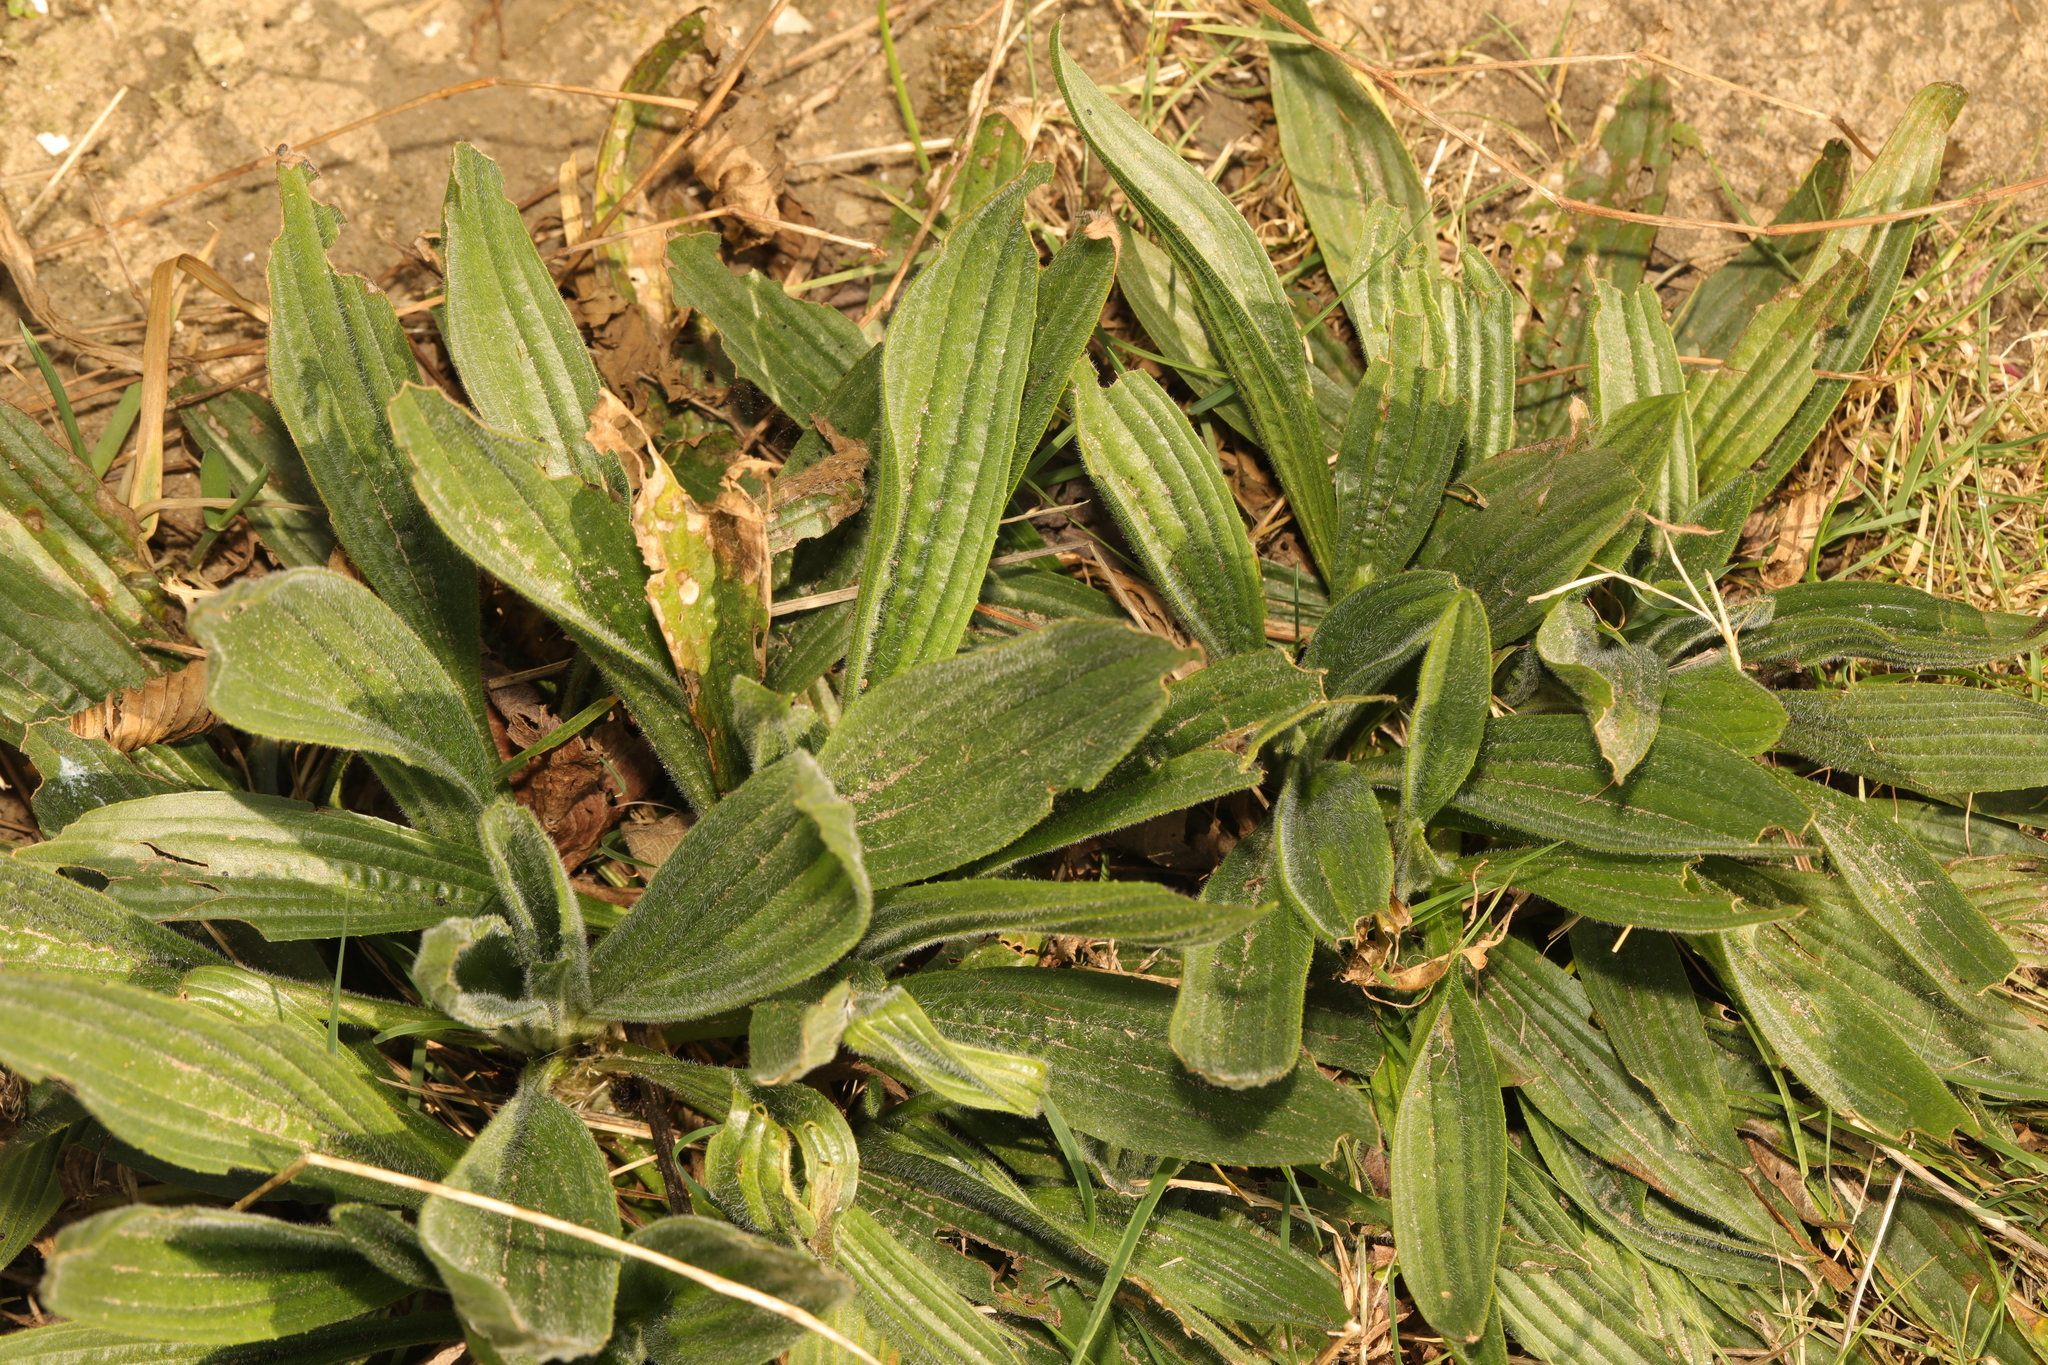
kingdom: Plantae
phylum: Tracheophyta
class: Magnoliopsida
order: Lamiales
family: Plantaginaceae
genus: Plantago
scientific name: Plantago lanceolata
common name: Ribwort plantain
